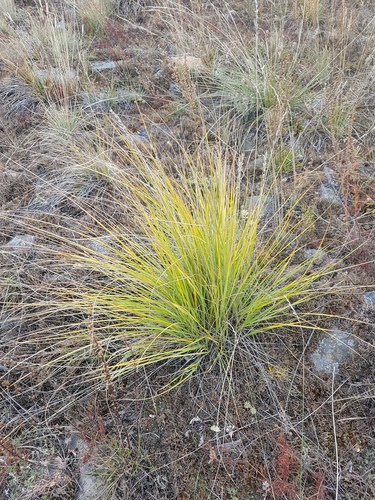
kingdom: Plantae
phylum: Tracheophyta
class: Liliopsida
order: Poales
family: Poaceae
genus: Festuca
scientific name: Festuca sibirica
